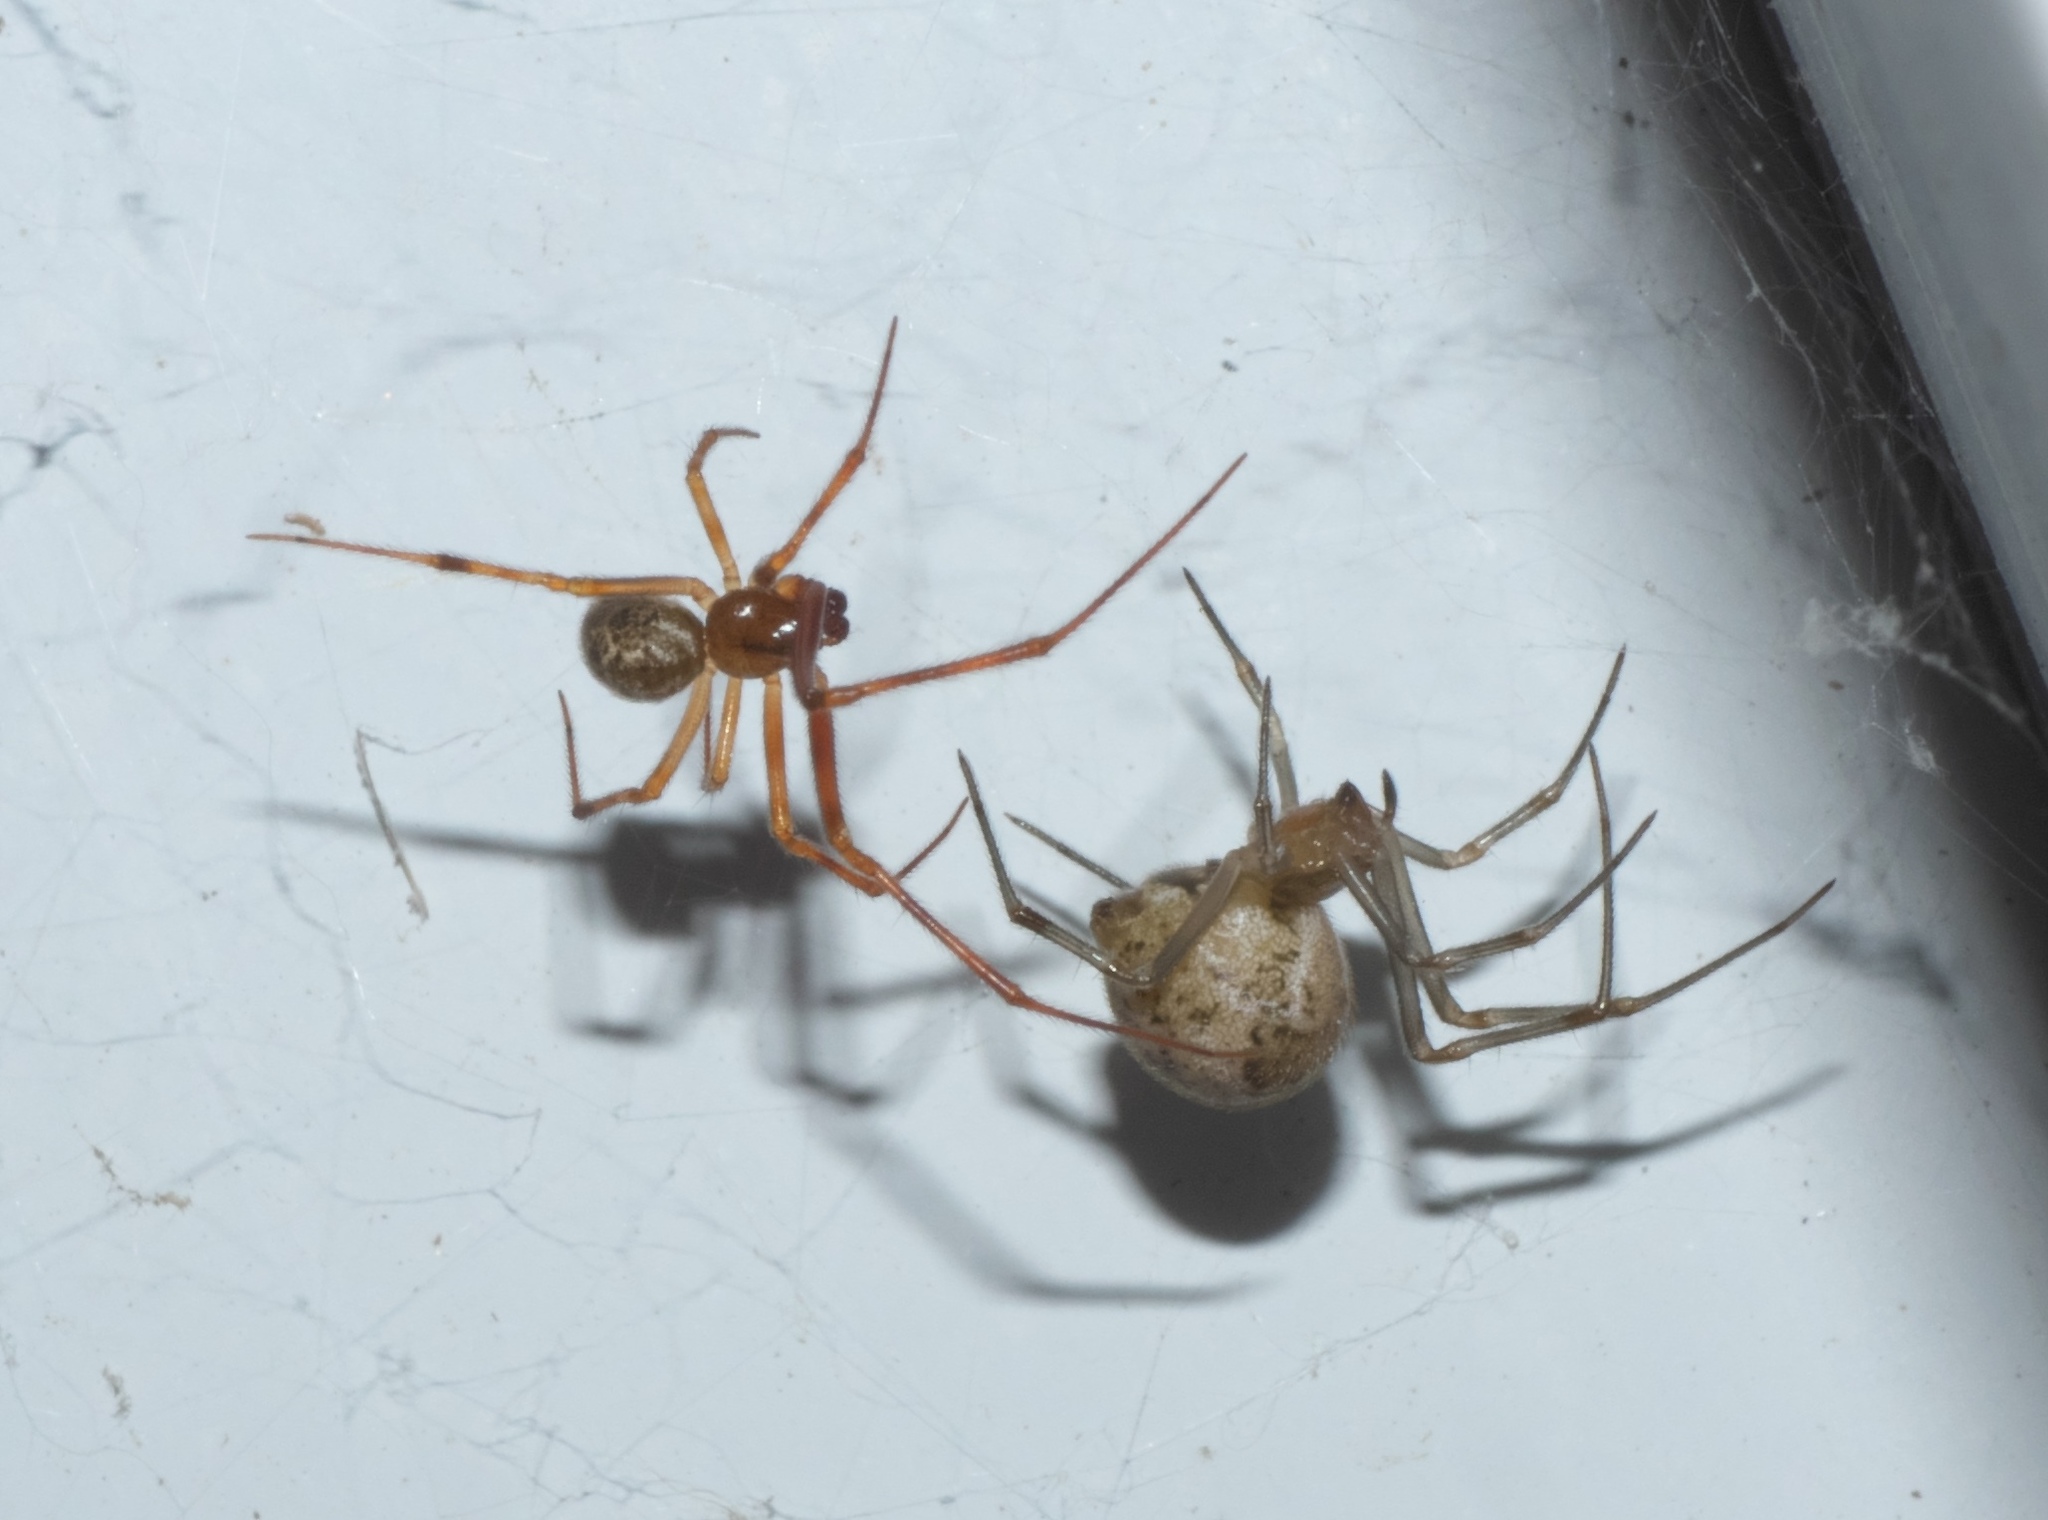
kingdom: Animalia
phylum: Arthropoda
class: Arachnida
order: Araneae
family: Theridiidae
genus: Parasteatoda
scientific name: Parasteatoda tepidariorum
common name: Common house spider
